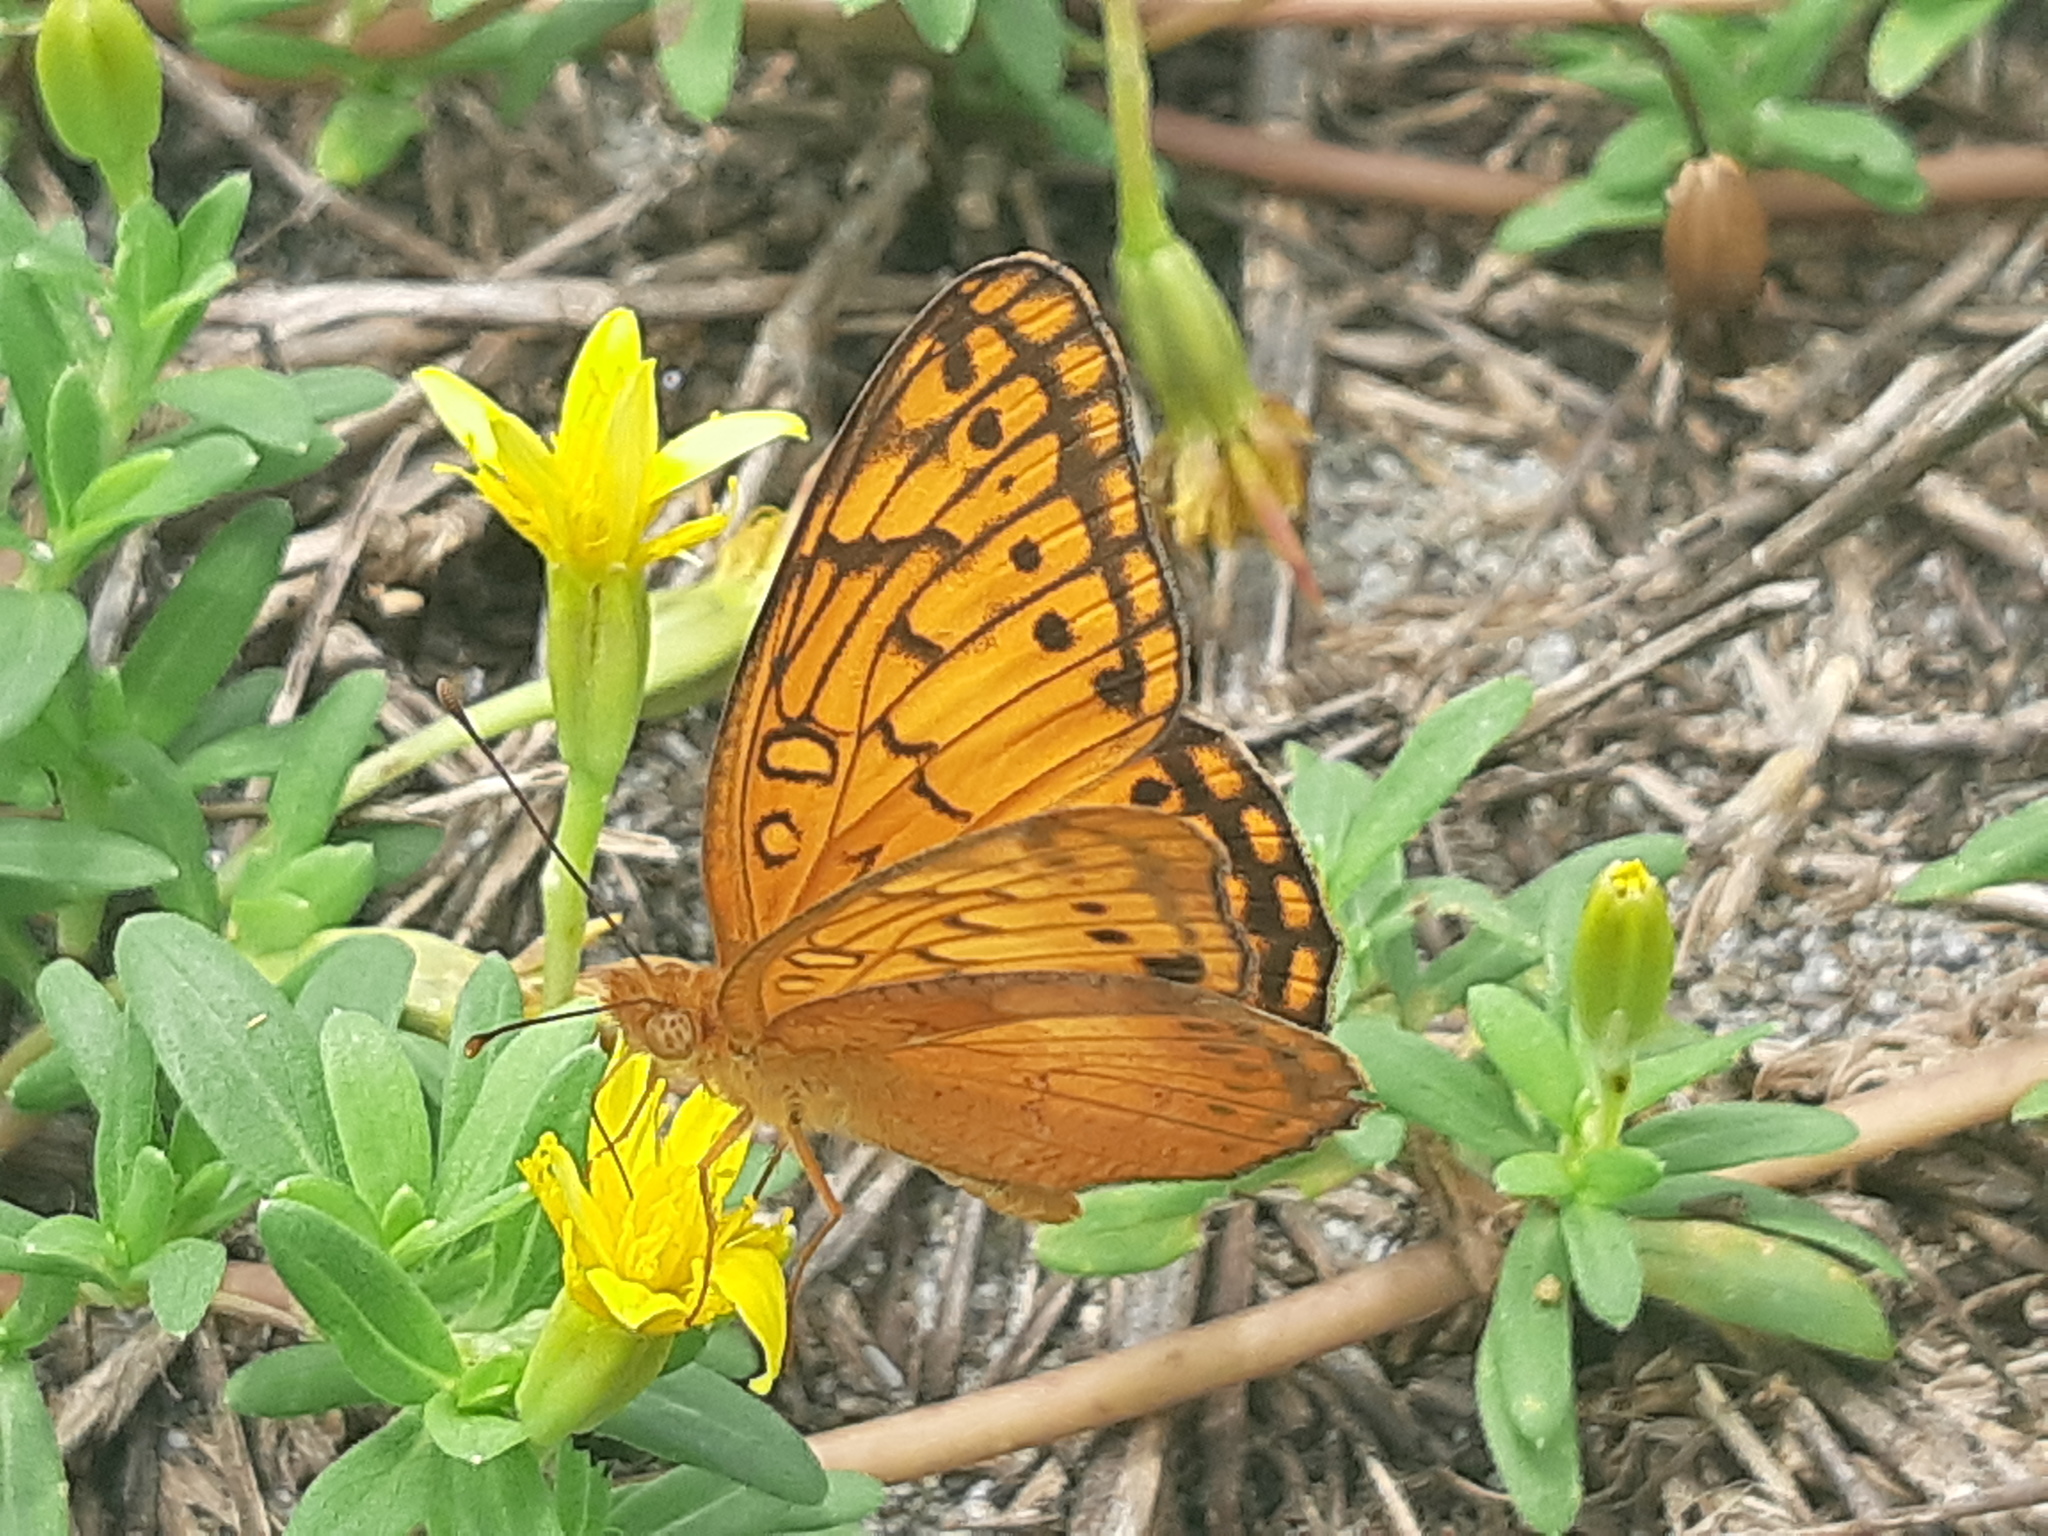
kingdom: Animalia
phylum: Arthropoda
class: Insecta
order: Lepidoptera
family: Nymphalidae
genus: Euptoieta
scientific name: Euptoieta hegesia
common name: Mexican fritillary
